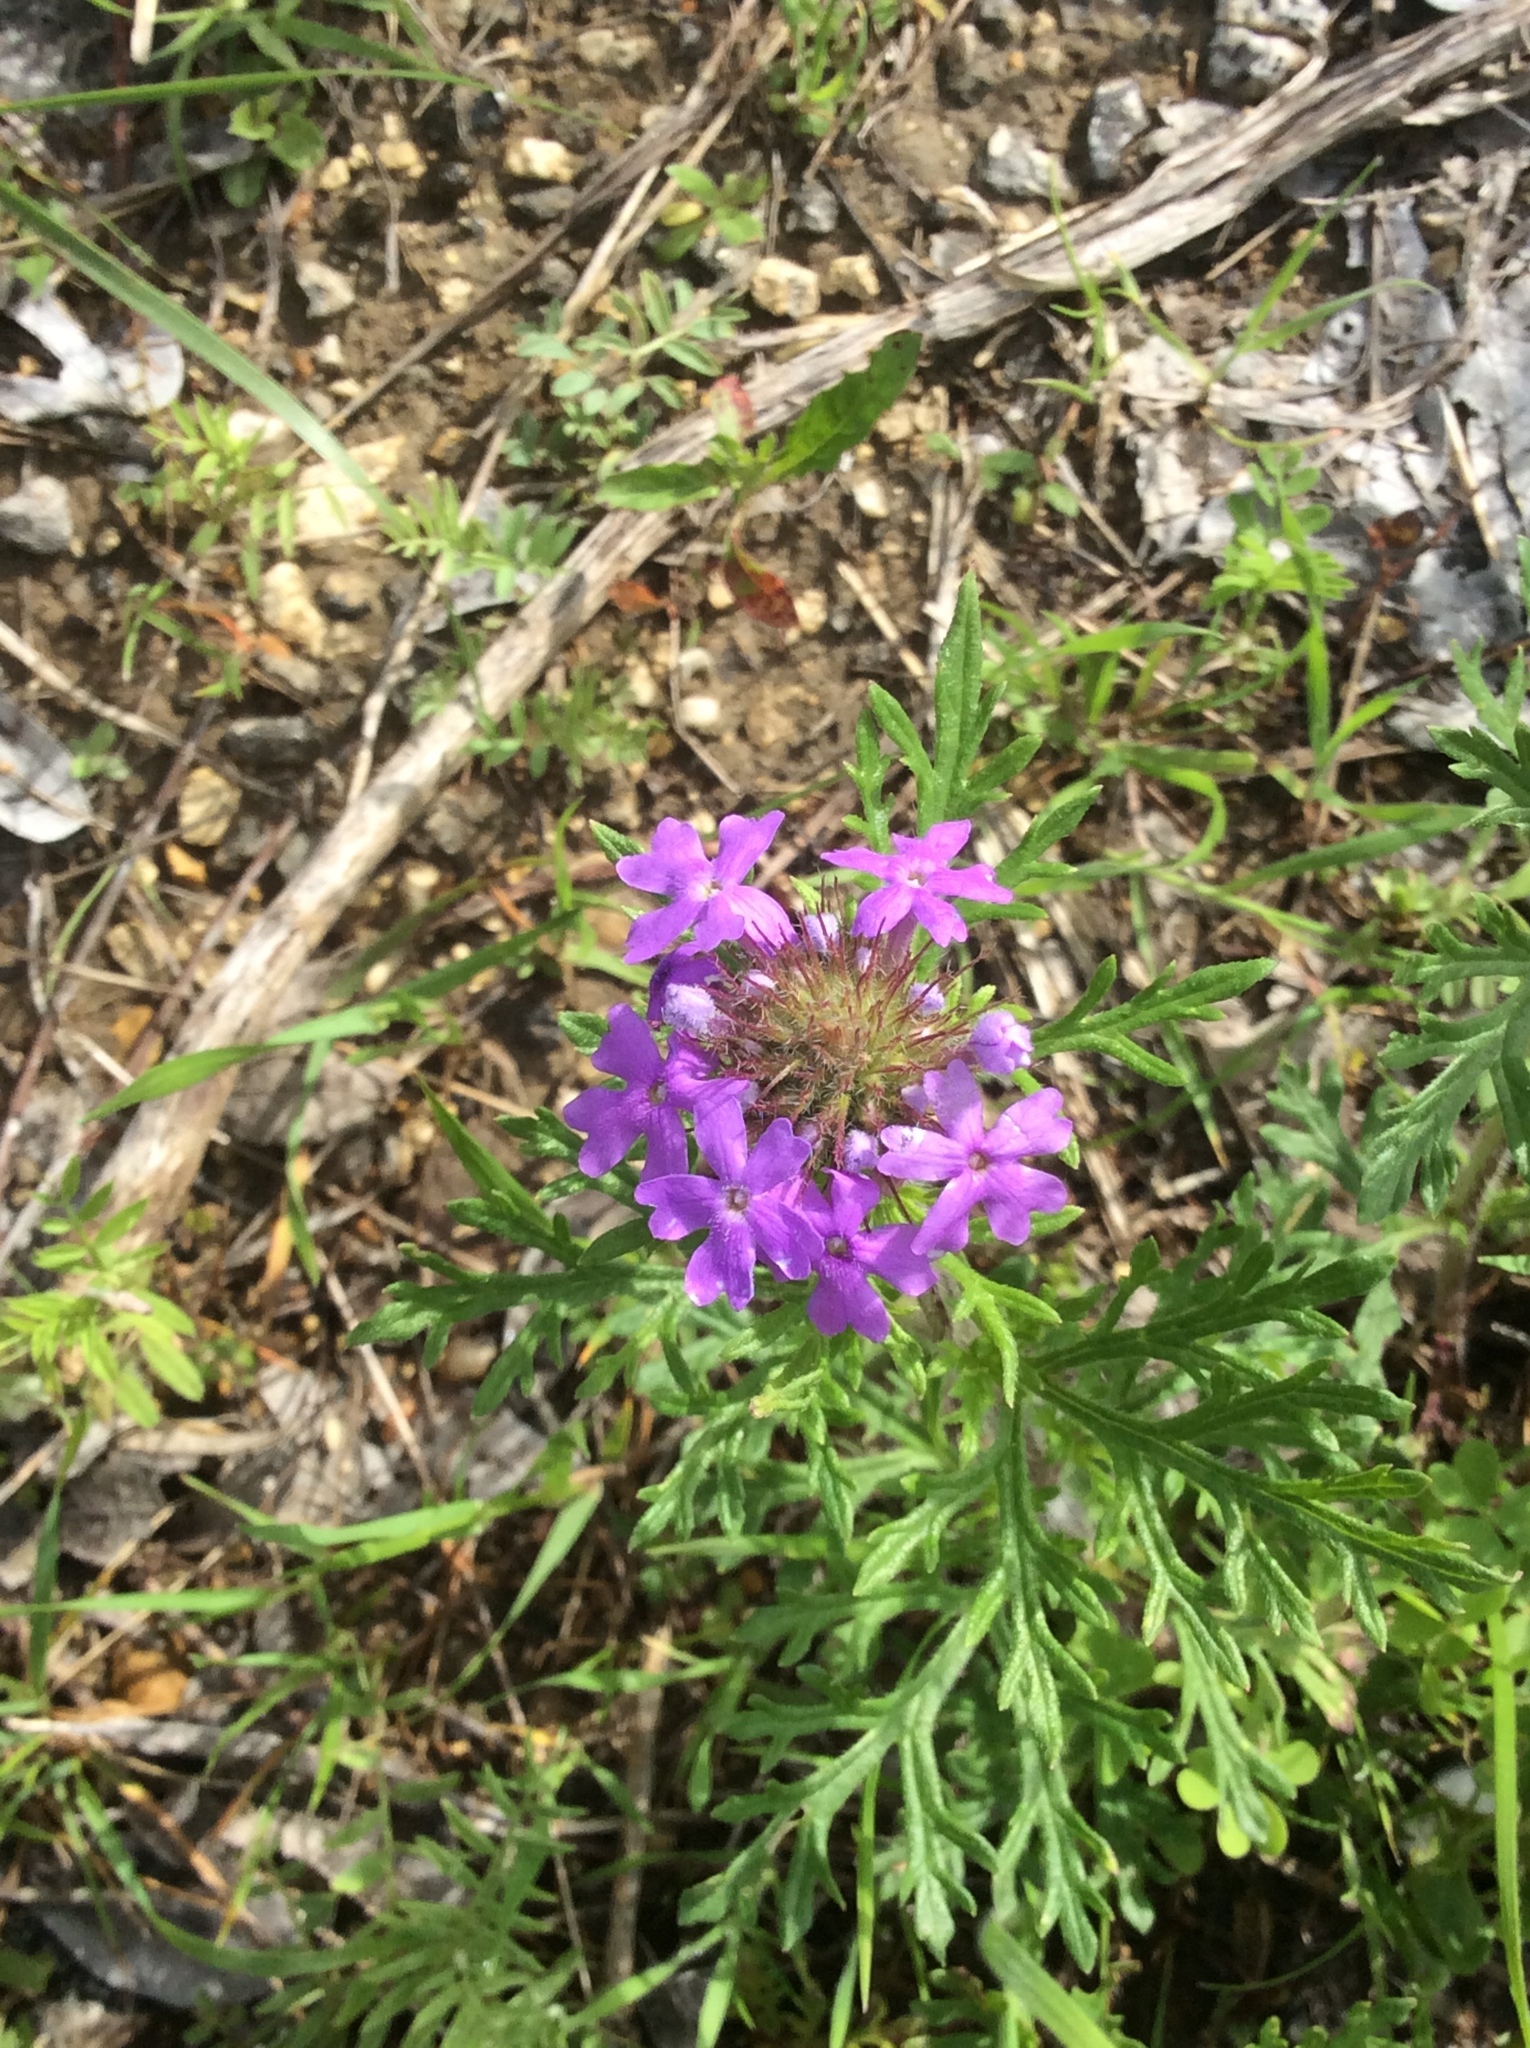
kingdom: Plantae
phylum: Tracheophyta
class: Magnoliopsida
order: Lamiales
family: Verbenaceae
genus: Verbena
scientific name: Verbena bipinnatifida
